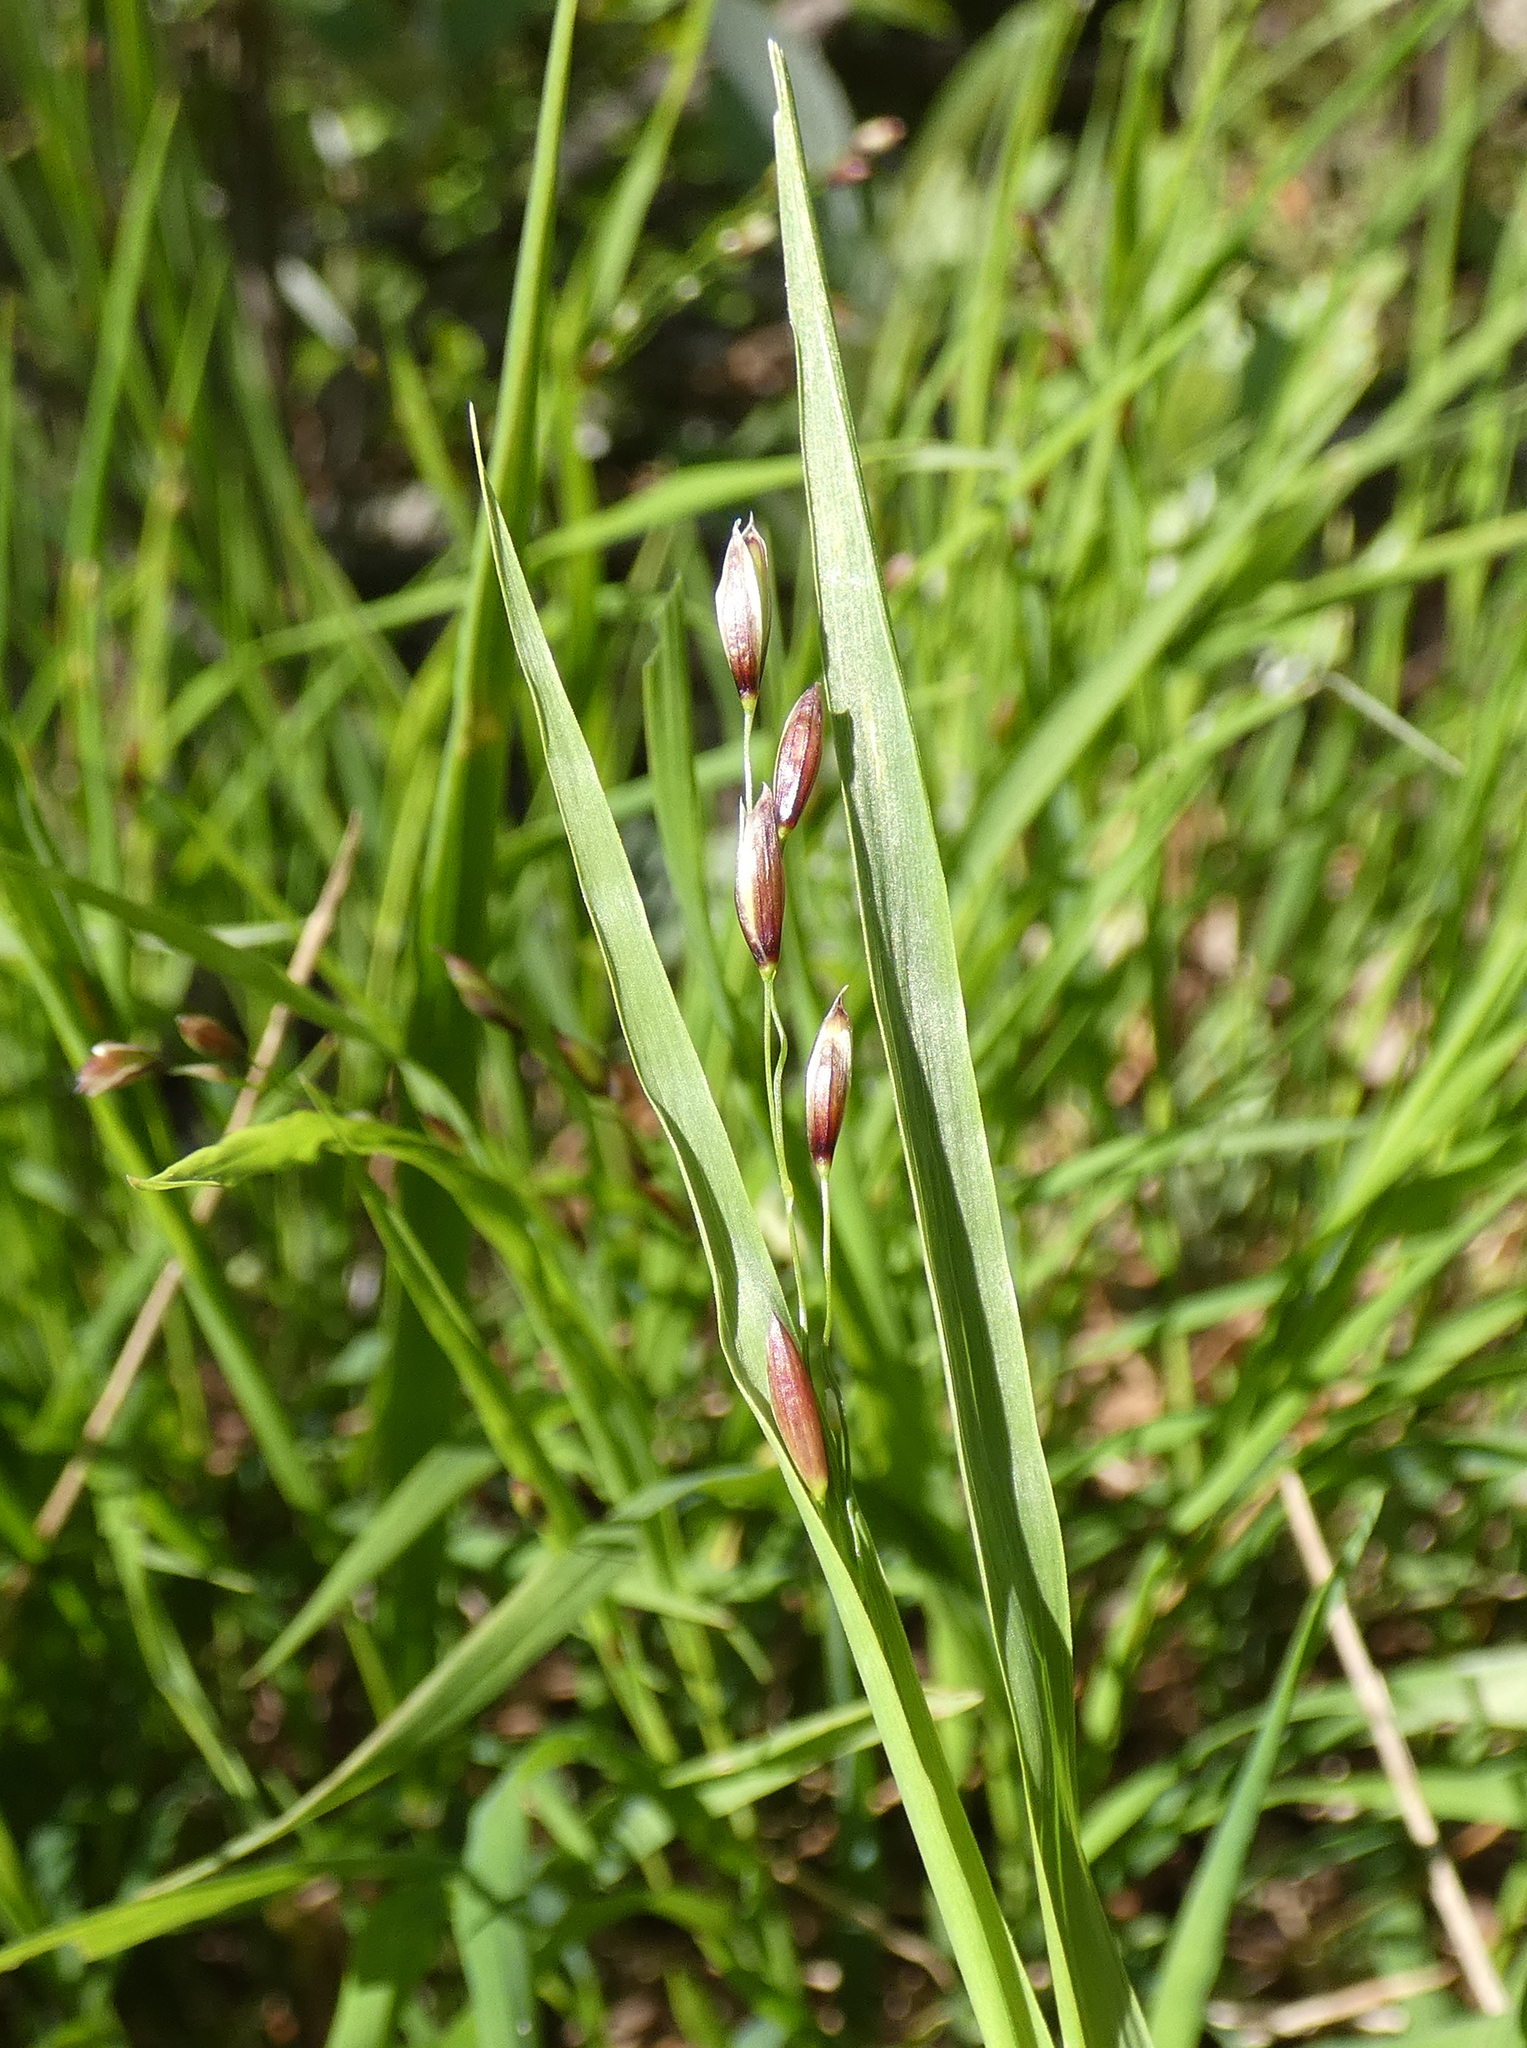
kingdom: Plantae
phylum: Tracheophyta
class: Liliopsida
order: Poales
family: Poaceae
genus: Melica
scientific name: Melica uniflora
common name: Wood melick
